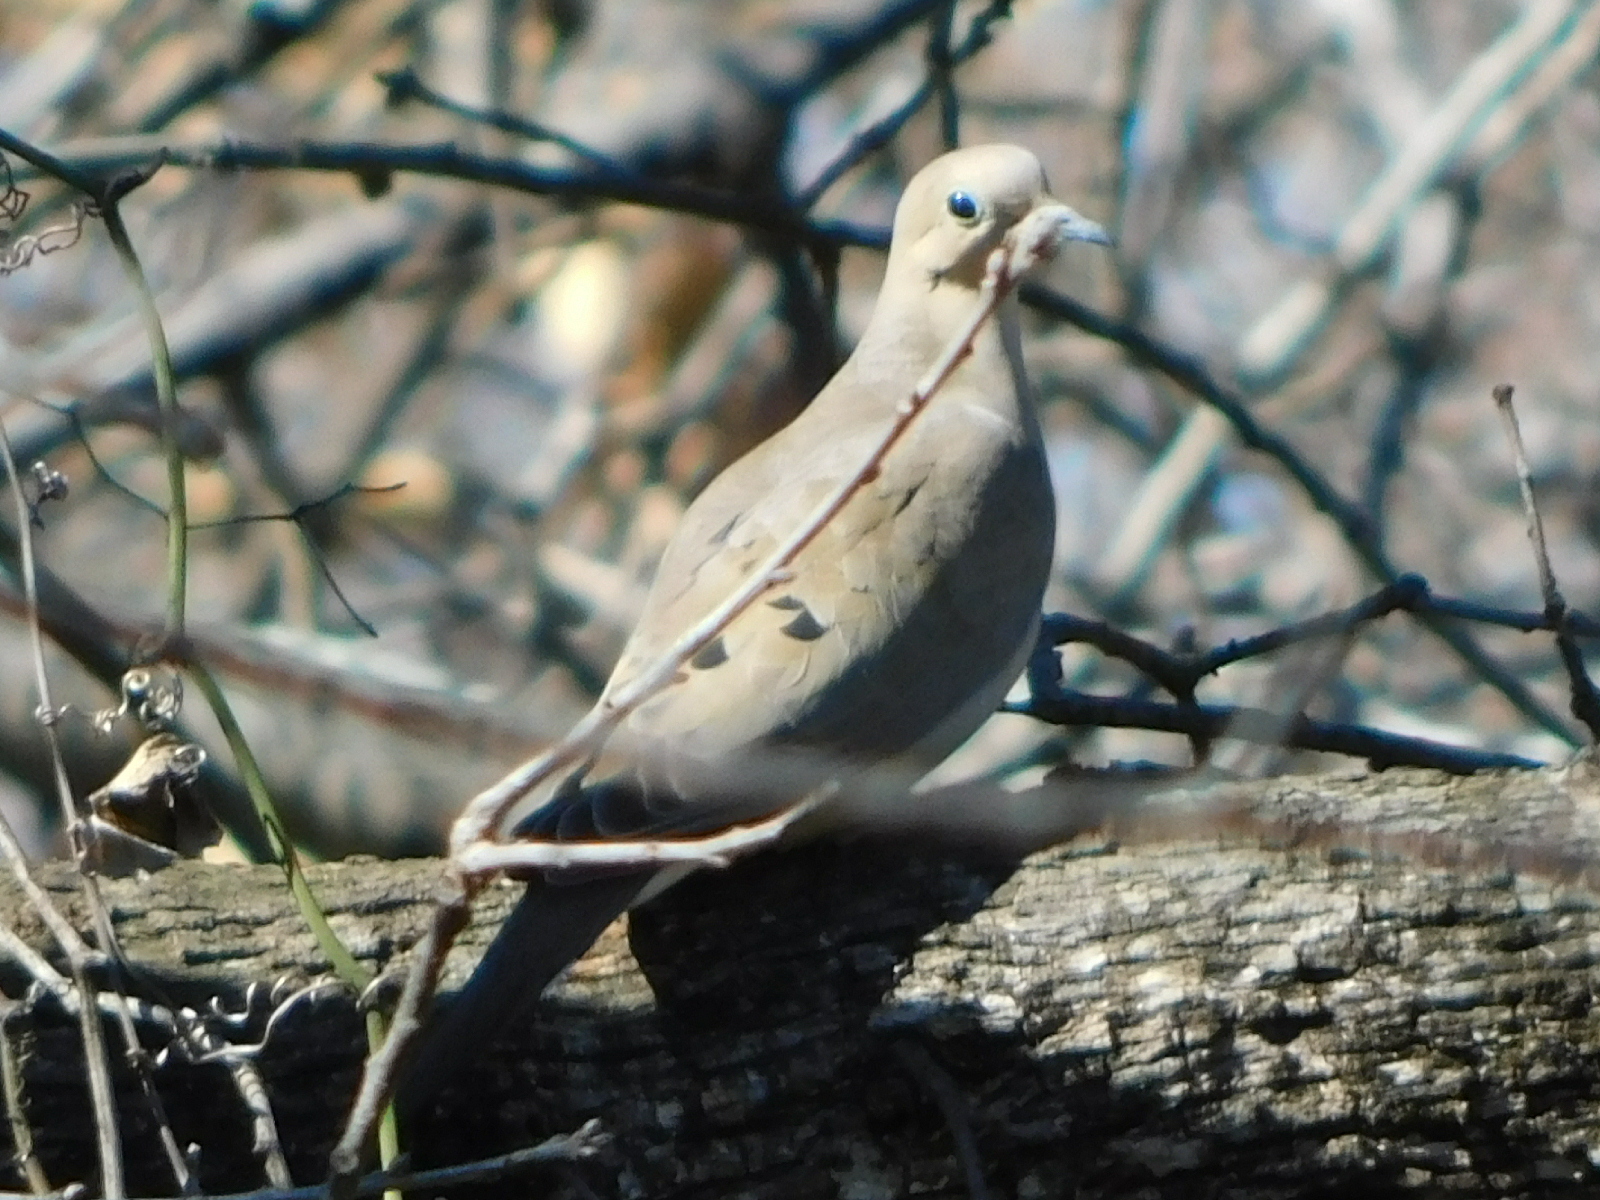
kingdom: Animalia
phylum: Chordata
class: Aves
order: Columbiformes
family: Columbidae
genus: Zenaida
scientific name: Zenaida macroura
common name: Mourning dove
